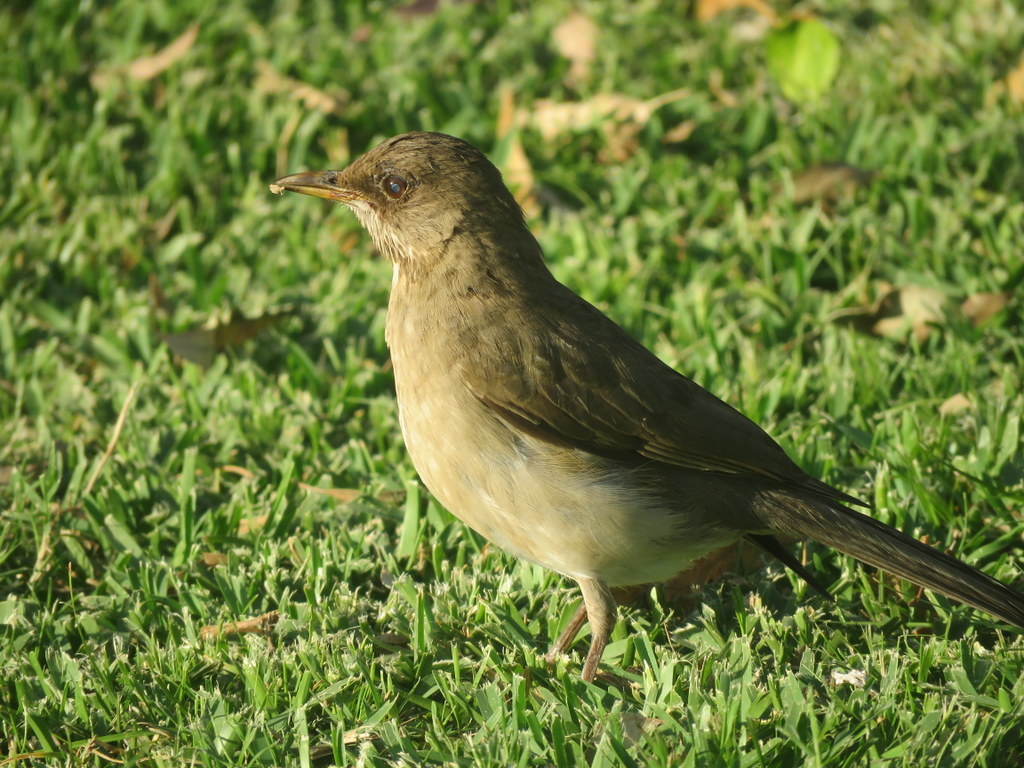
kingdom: Animalia
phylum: Chordata
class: Aves
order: Passeriformes
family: Turdidae
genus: Turdus
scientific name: Turdus amaurochalinus
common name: Creamy-bellied thrush
